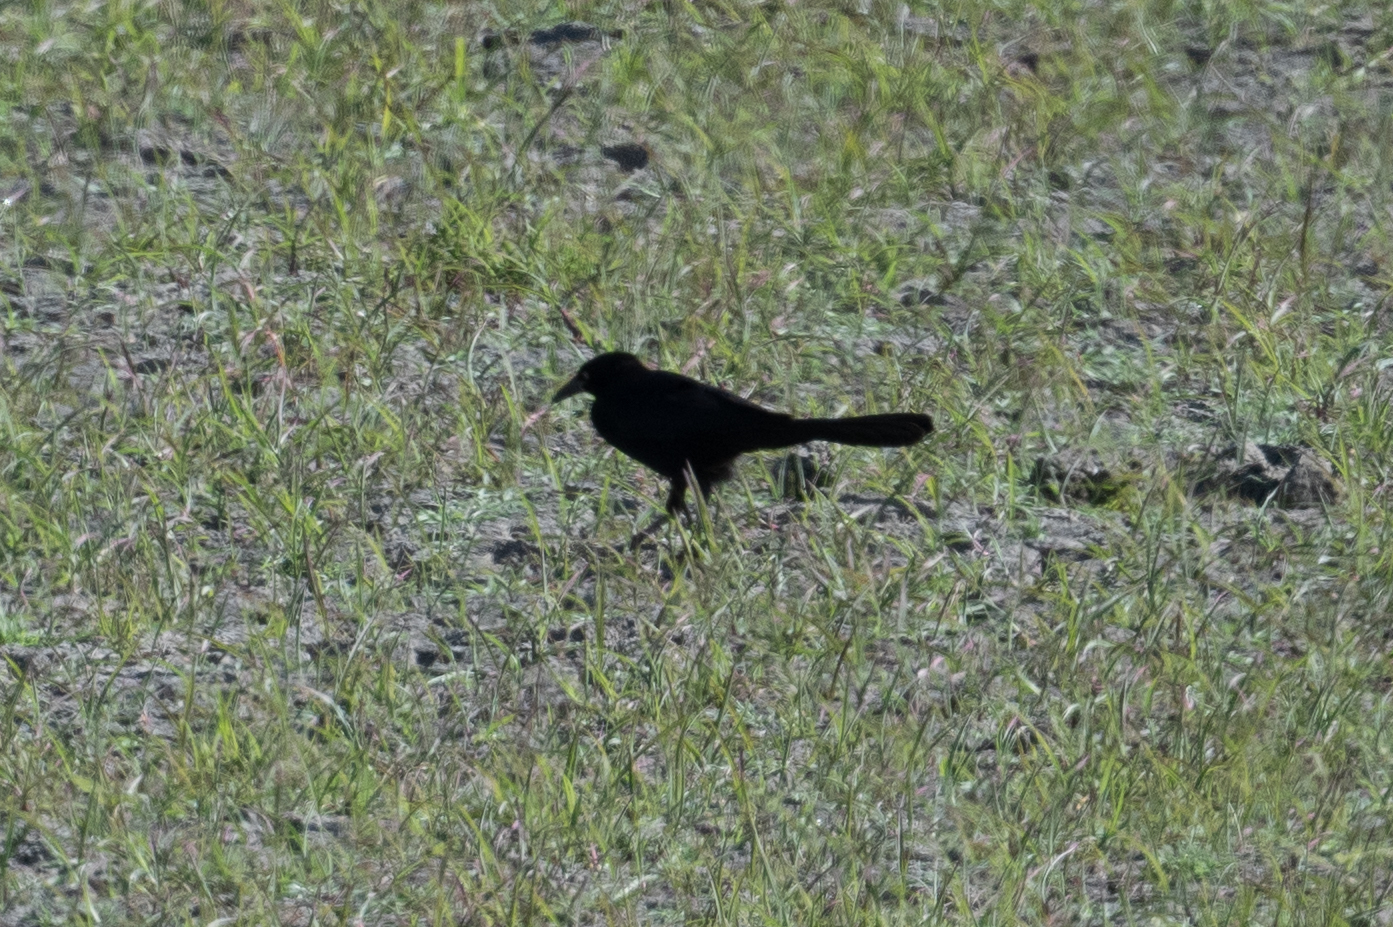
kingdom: Animalia
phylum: Chordata
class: Aves
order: Passeriformes
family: Icteridae
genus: Quiscalus
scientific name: Quiscalus mexicanus
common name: Great-tailed grackle
